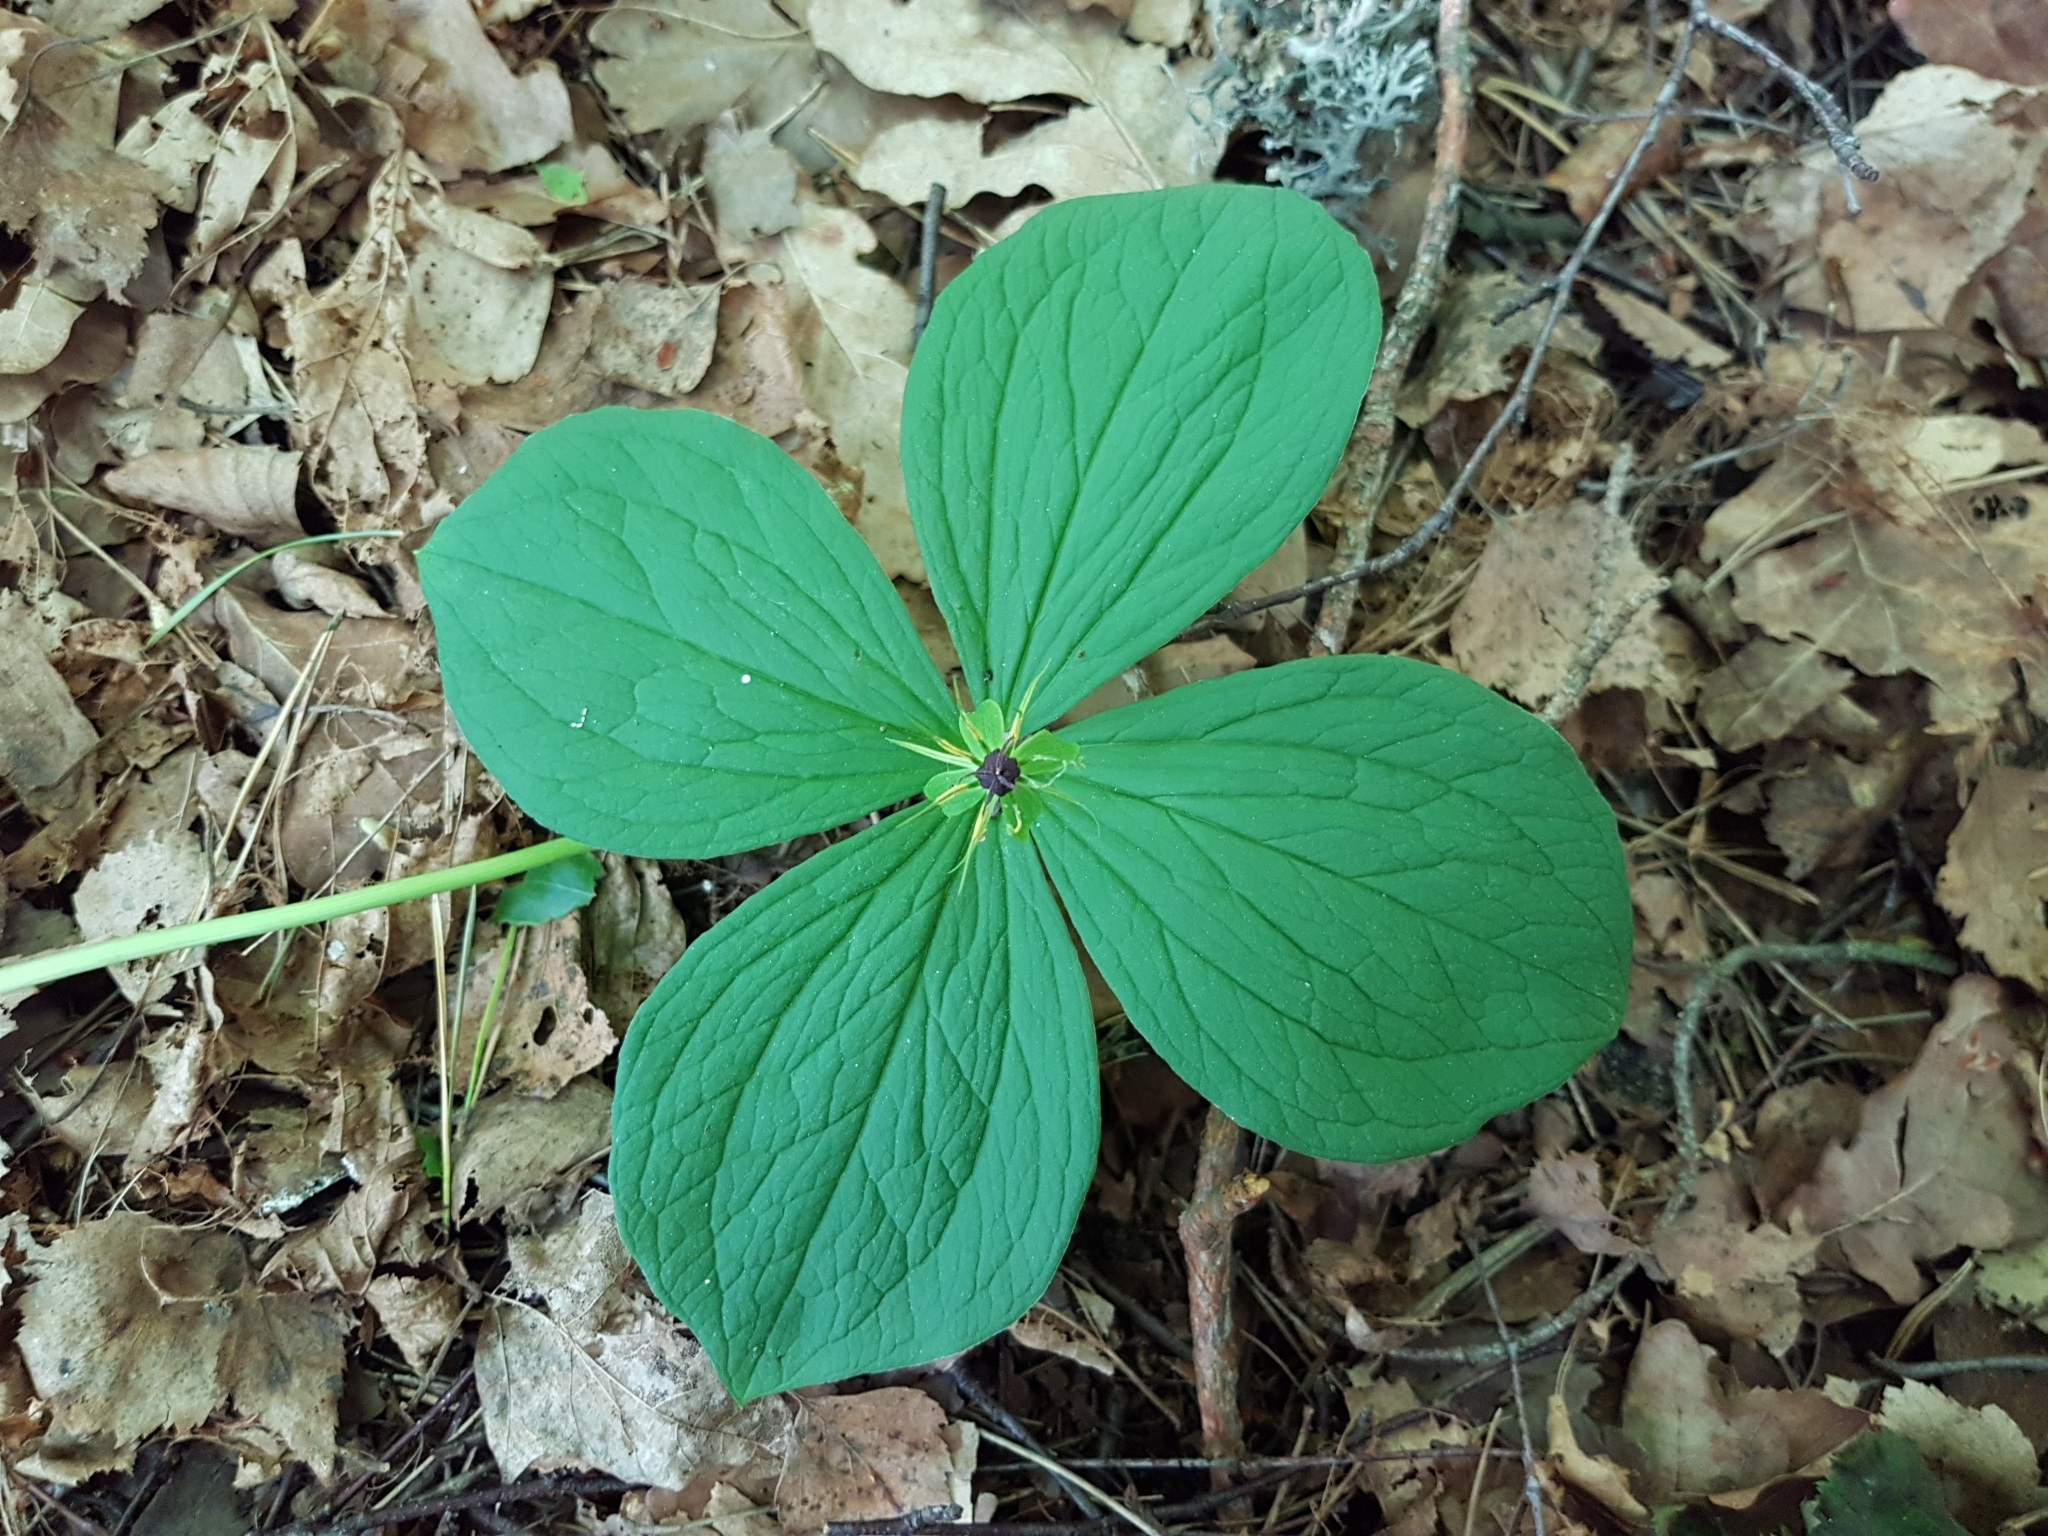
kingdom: Plantae
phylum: Tracheophyta
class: Liliopsida
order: Liliales
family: Melanthiaceae
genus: Paris
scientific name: Paris quadrifolia
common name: Herb-paris
